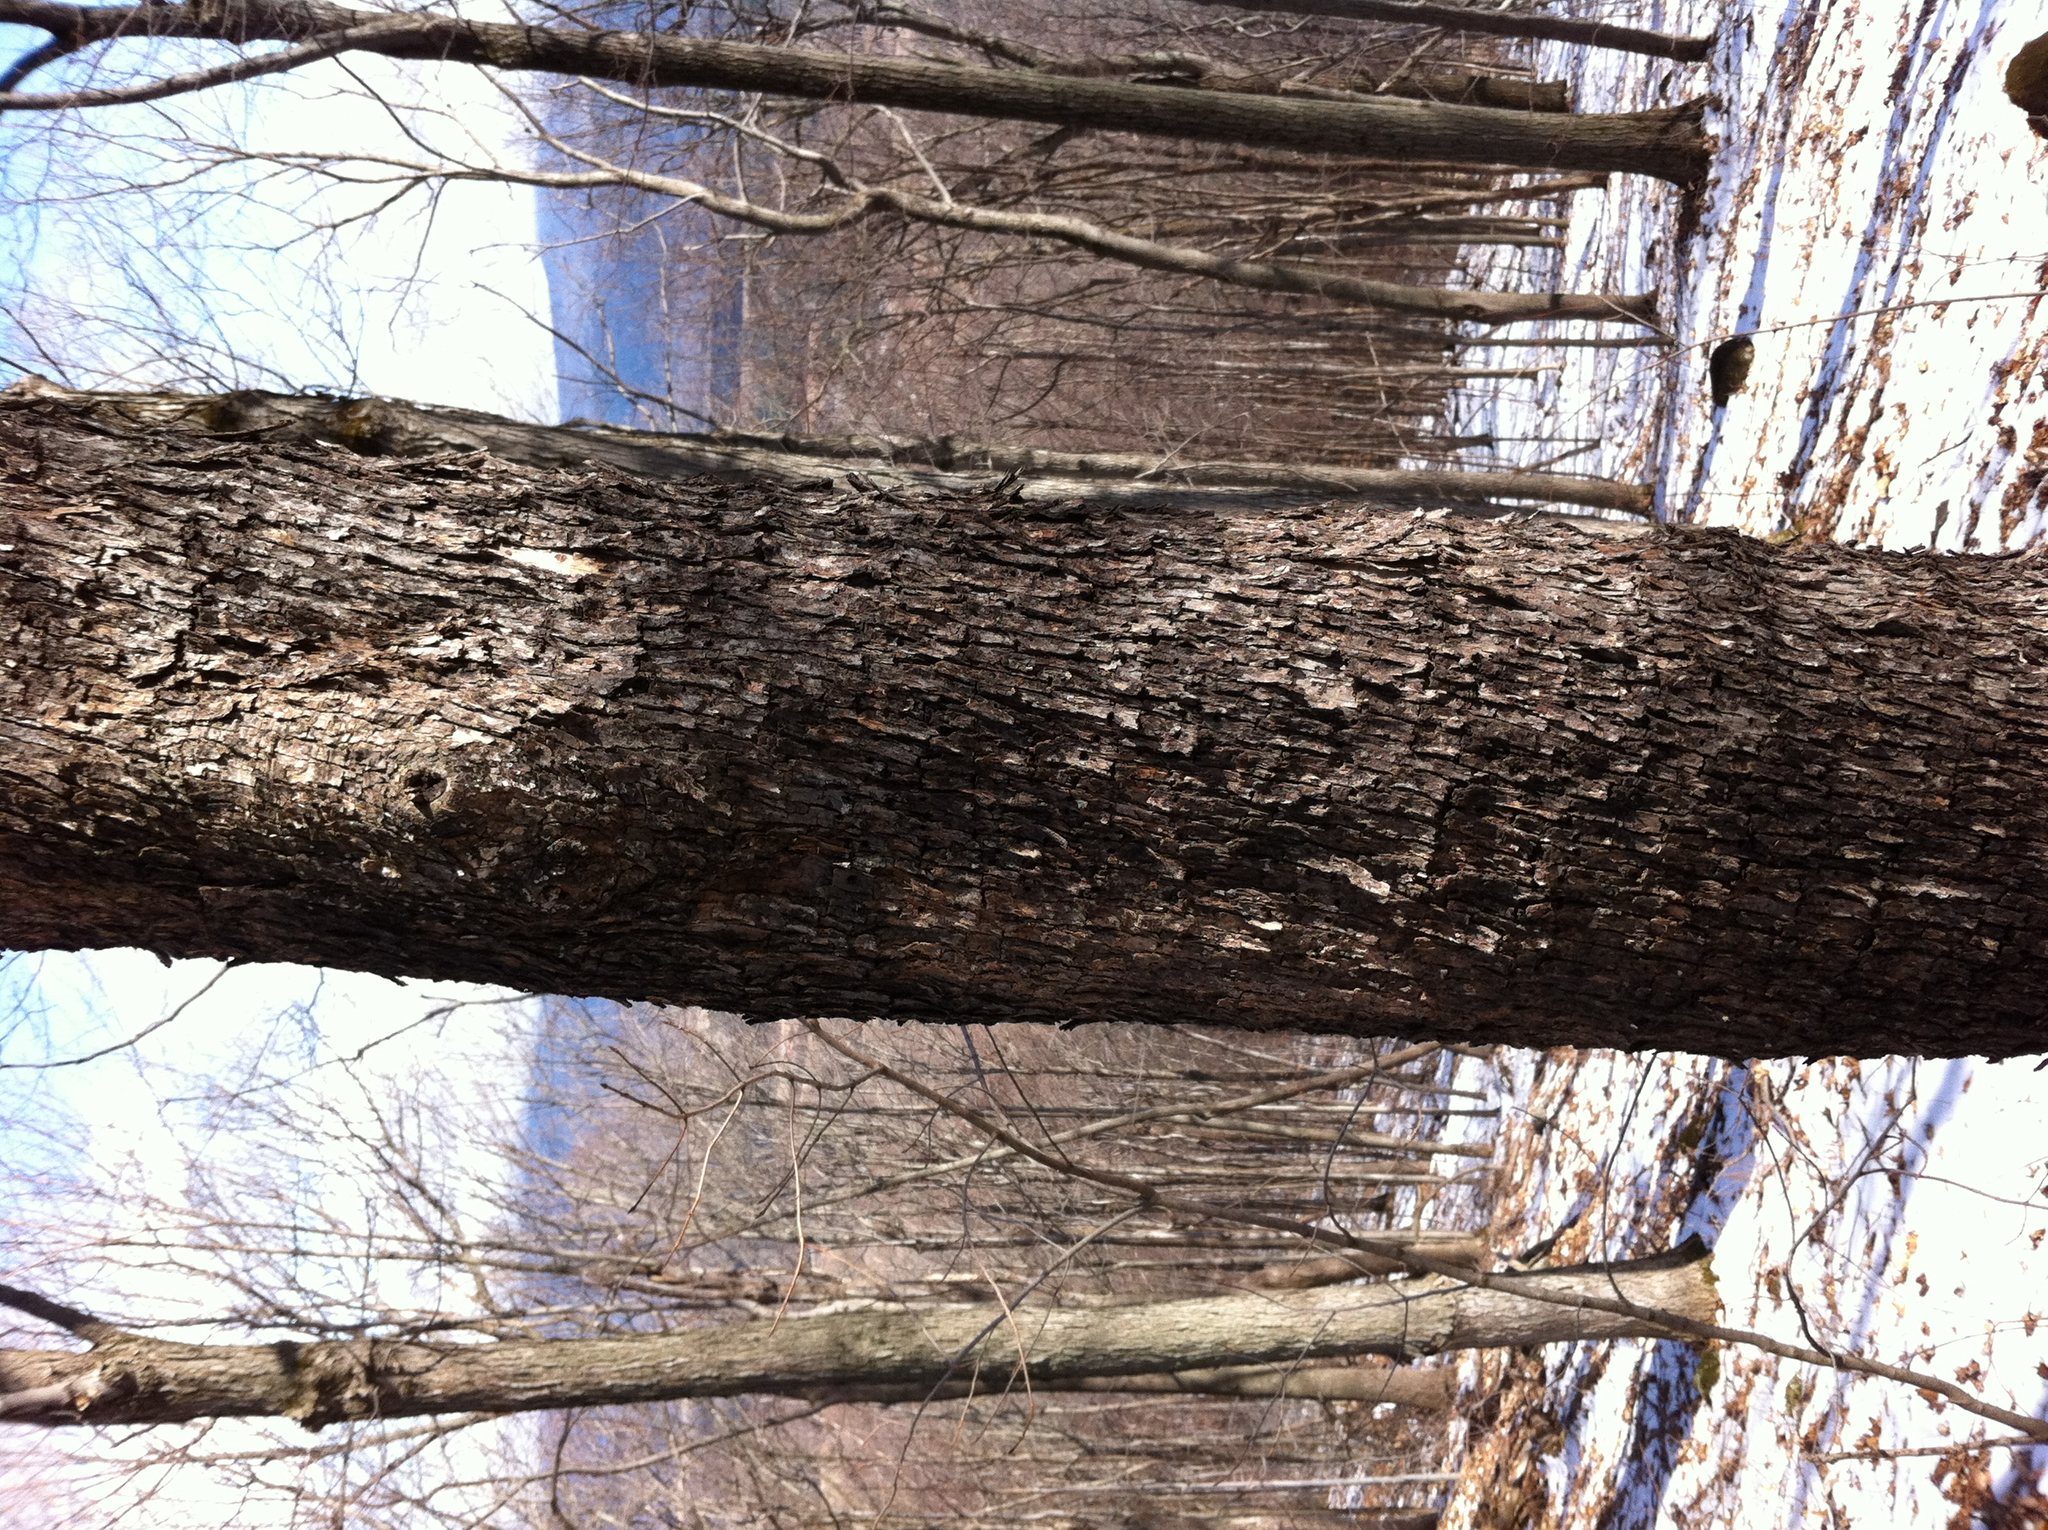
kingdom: Plantae
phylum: Tracheophyta
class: Magnoliopsida
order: Fagales
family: Betulaceae
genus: Ostrya
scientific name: Ostrya virginiana
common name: Ironwood
